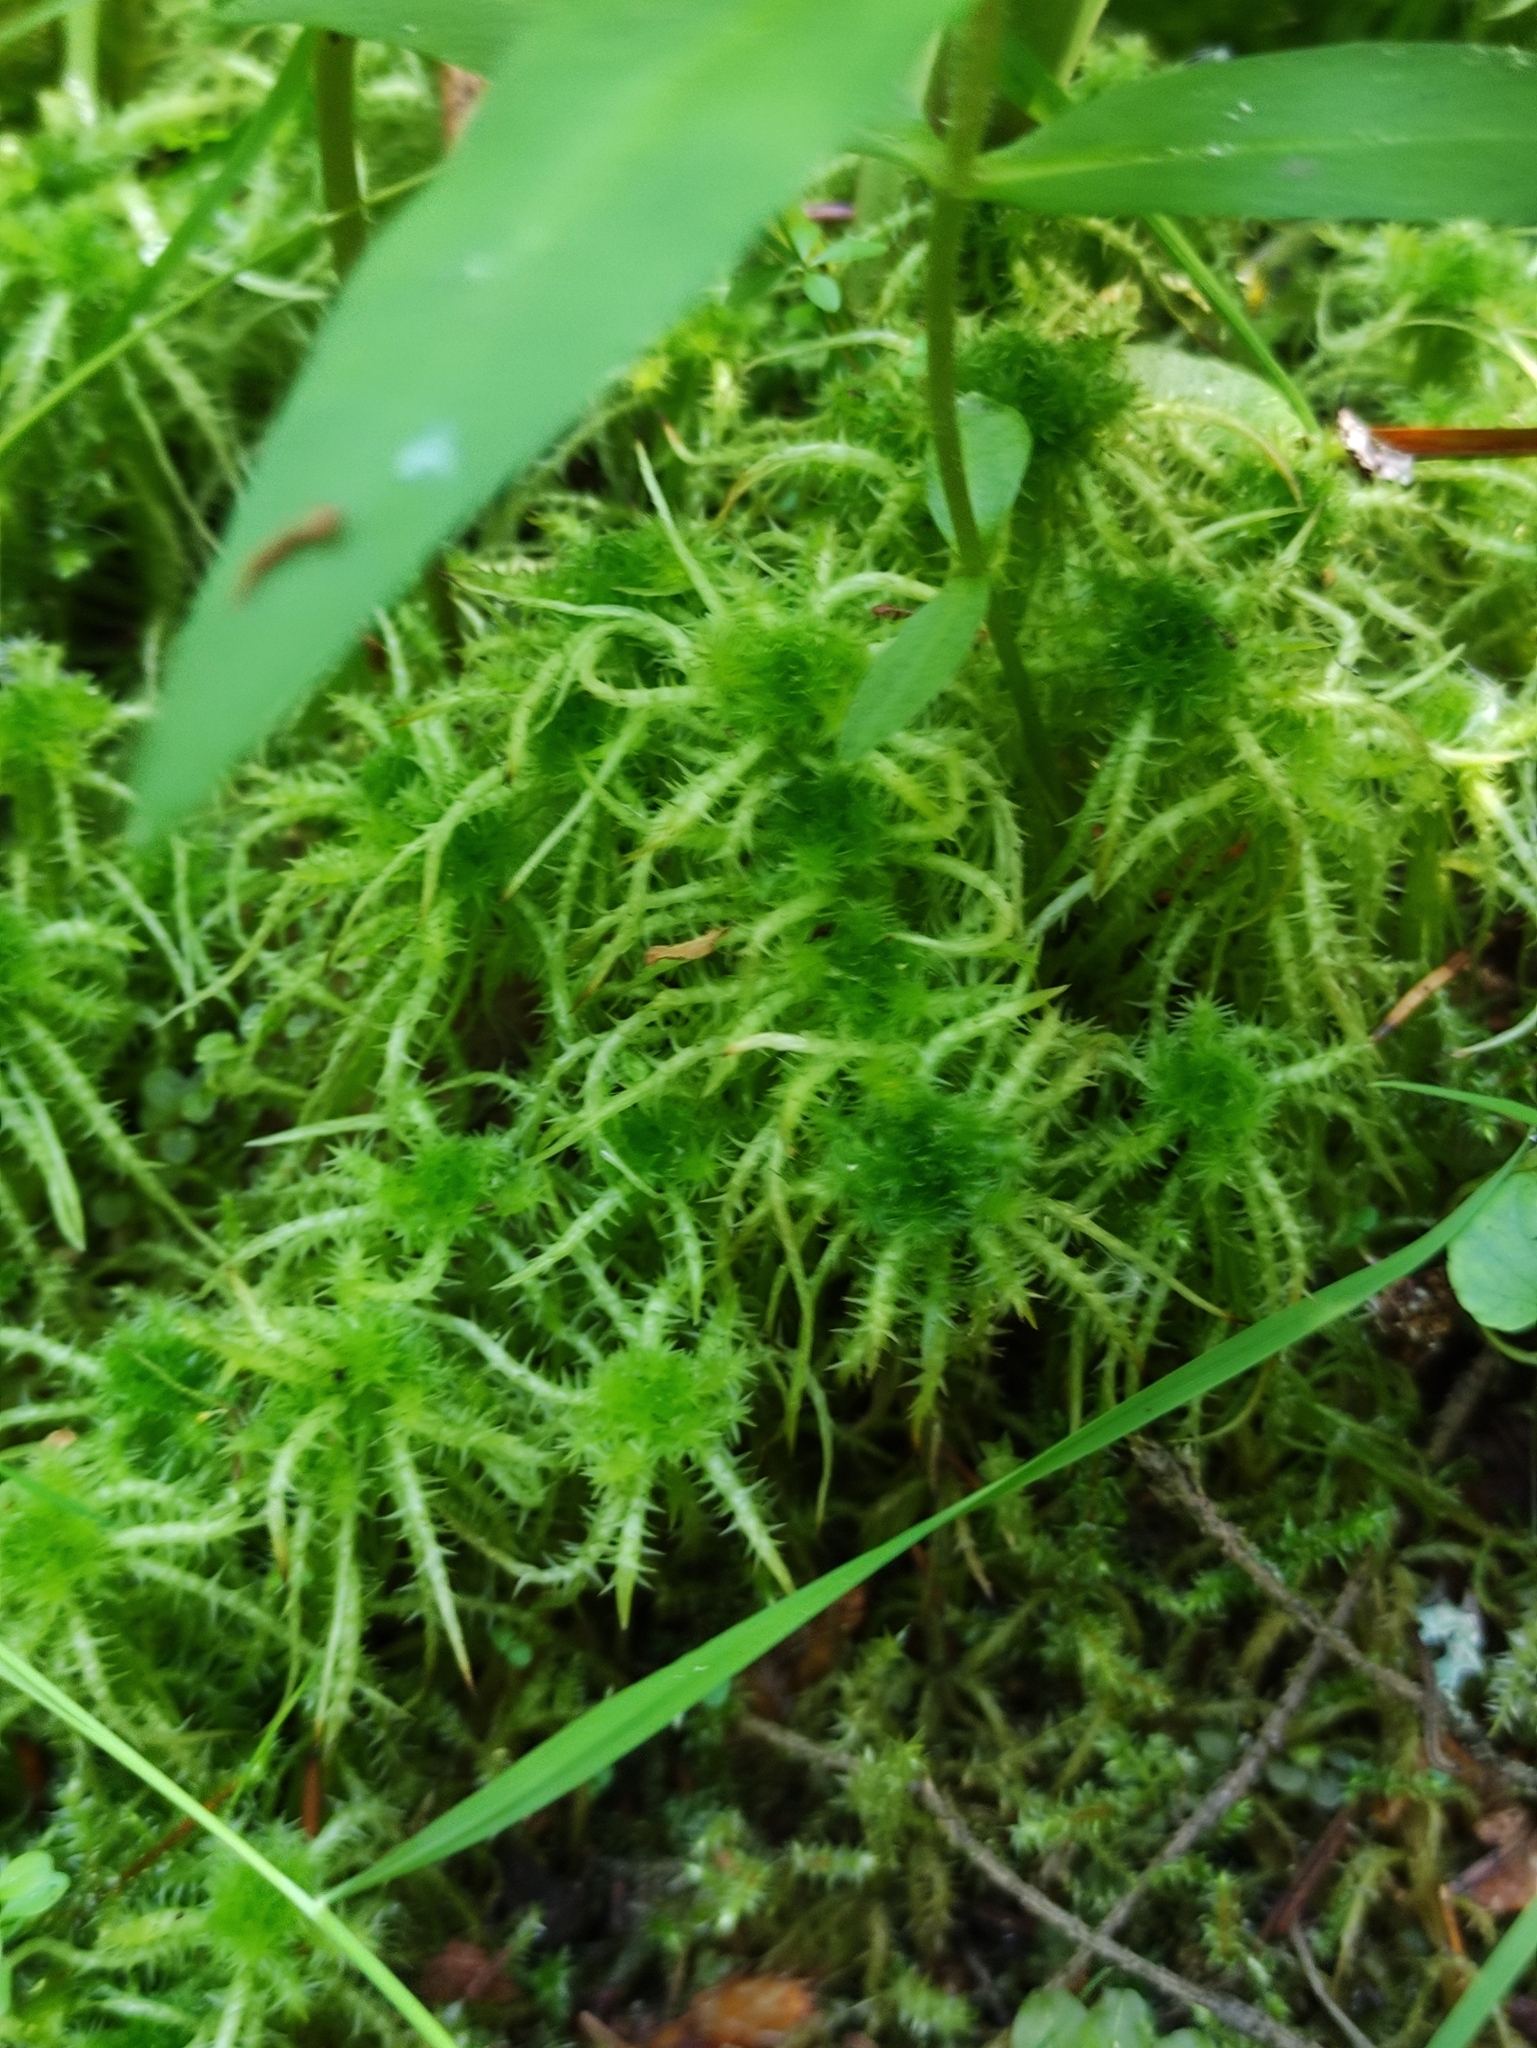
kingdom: Plantae
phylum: Bryophyta
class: Sphagnopsida
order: Sphagnales
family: Sphagnaceae
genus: Sphagnum
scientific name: Sphagnum squarrosum
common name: Shaggy peat moss
